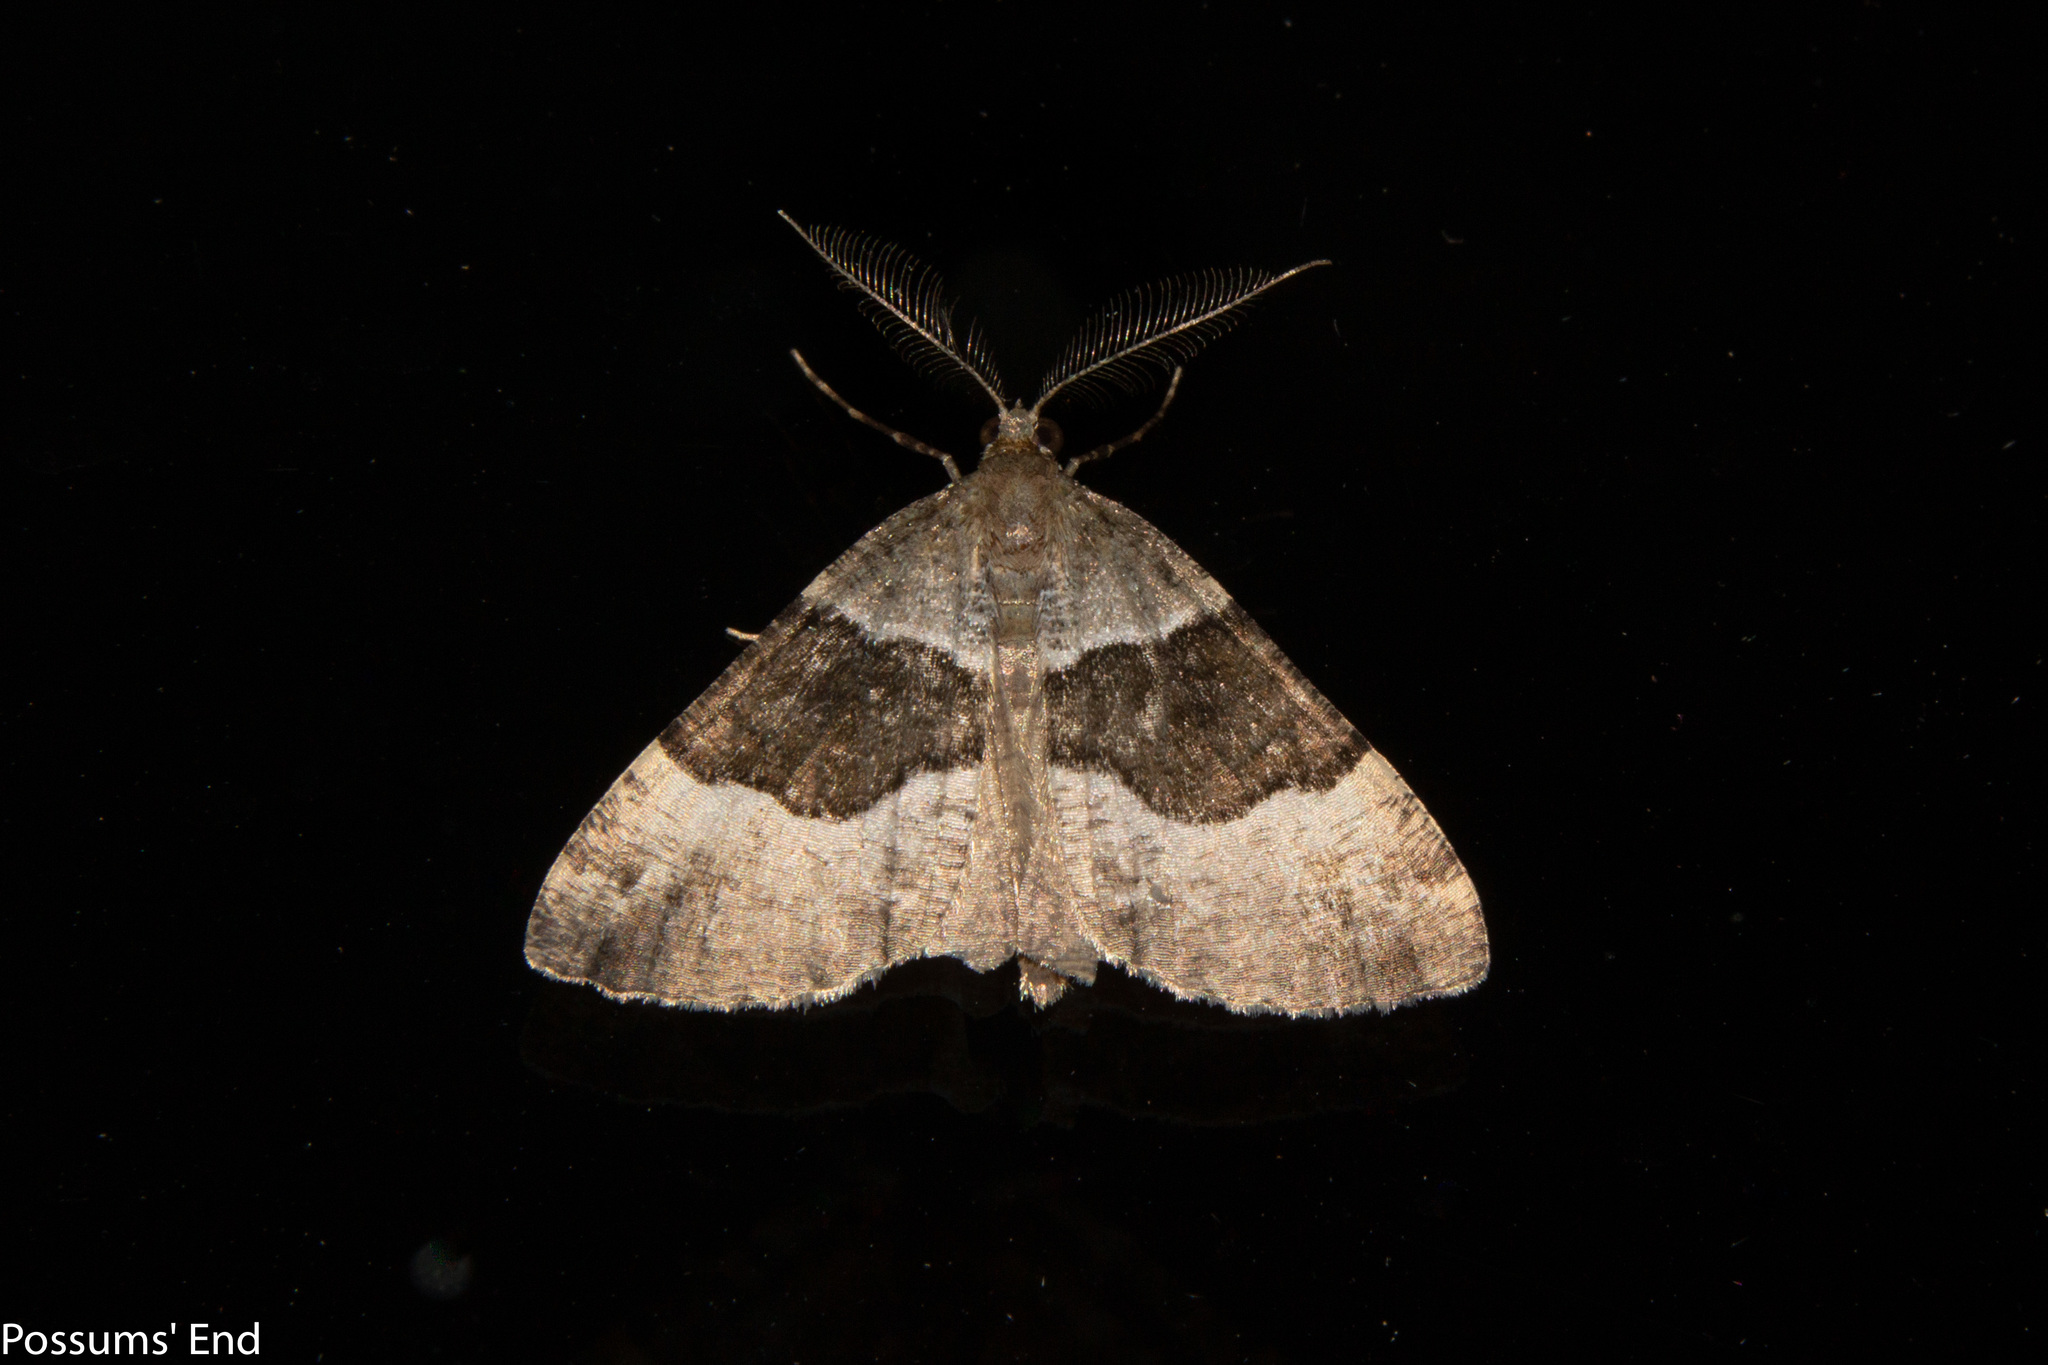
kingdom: Animalia
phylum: Arthropoda
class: Insecta
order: Lepidoptera
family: Geometridae
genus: Pseudocoremia
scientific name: Pseudocoremia
